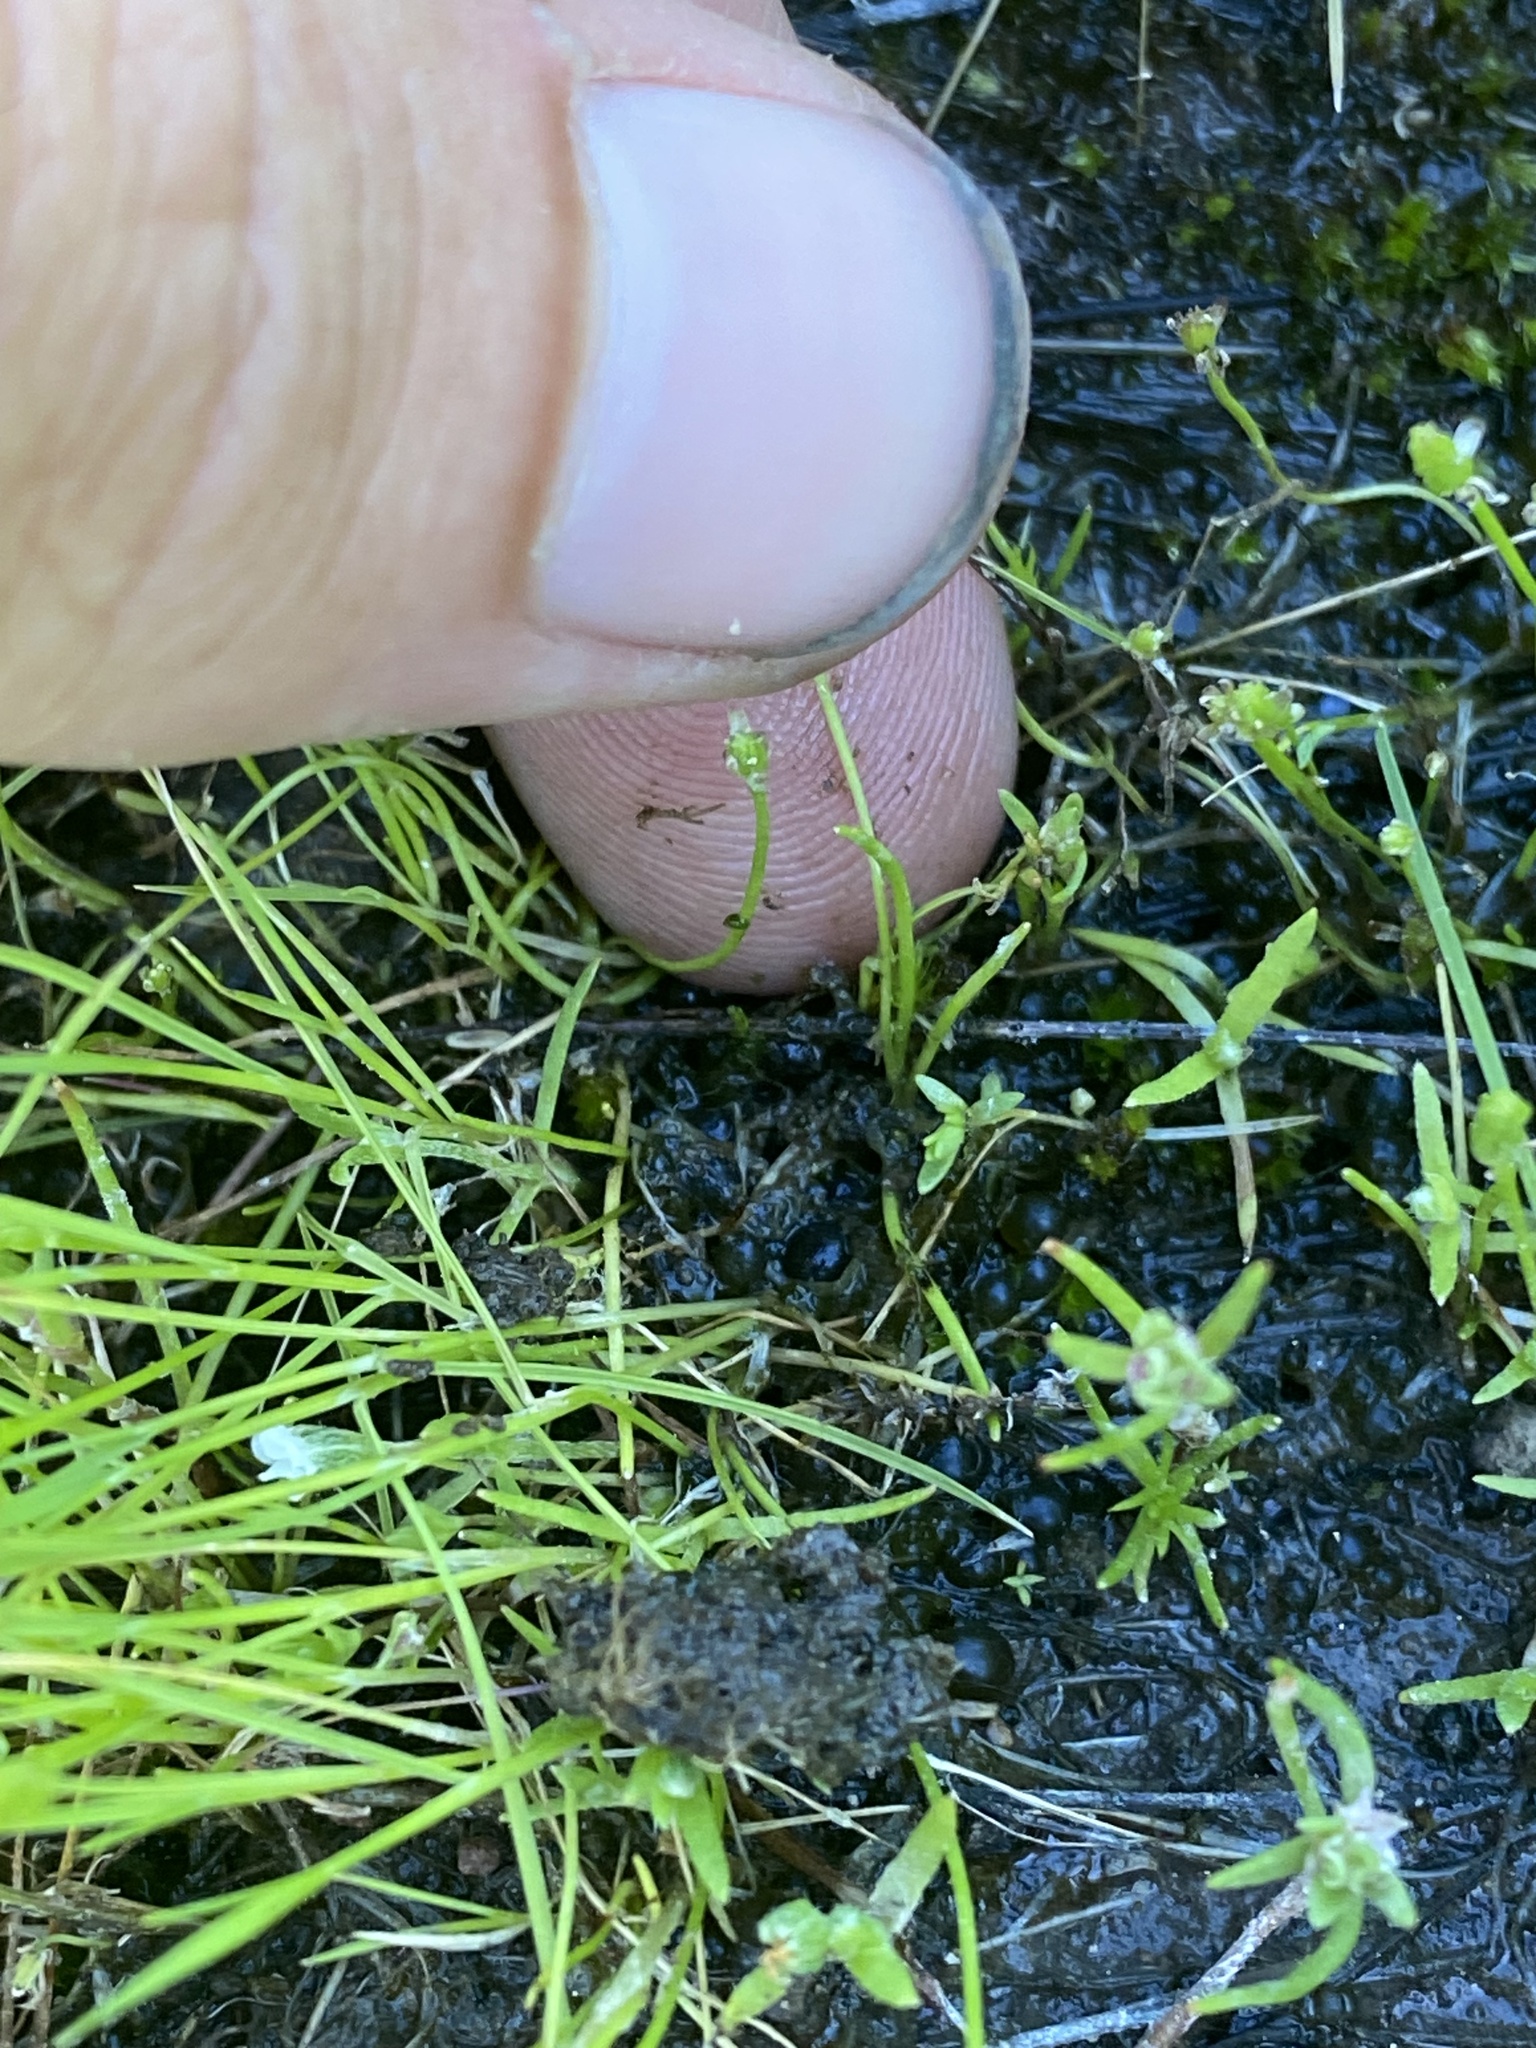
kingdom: Plantae
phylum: Tracheophyta
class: Magnoliopsida
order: Ranunculales
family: Ranunculaceae
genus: Myosurus
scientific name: Myosurus minimus
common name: Mousetail
